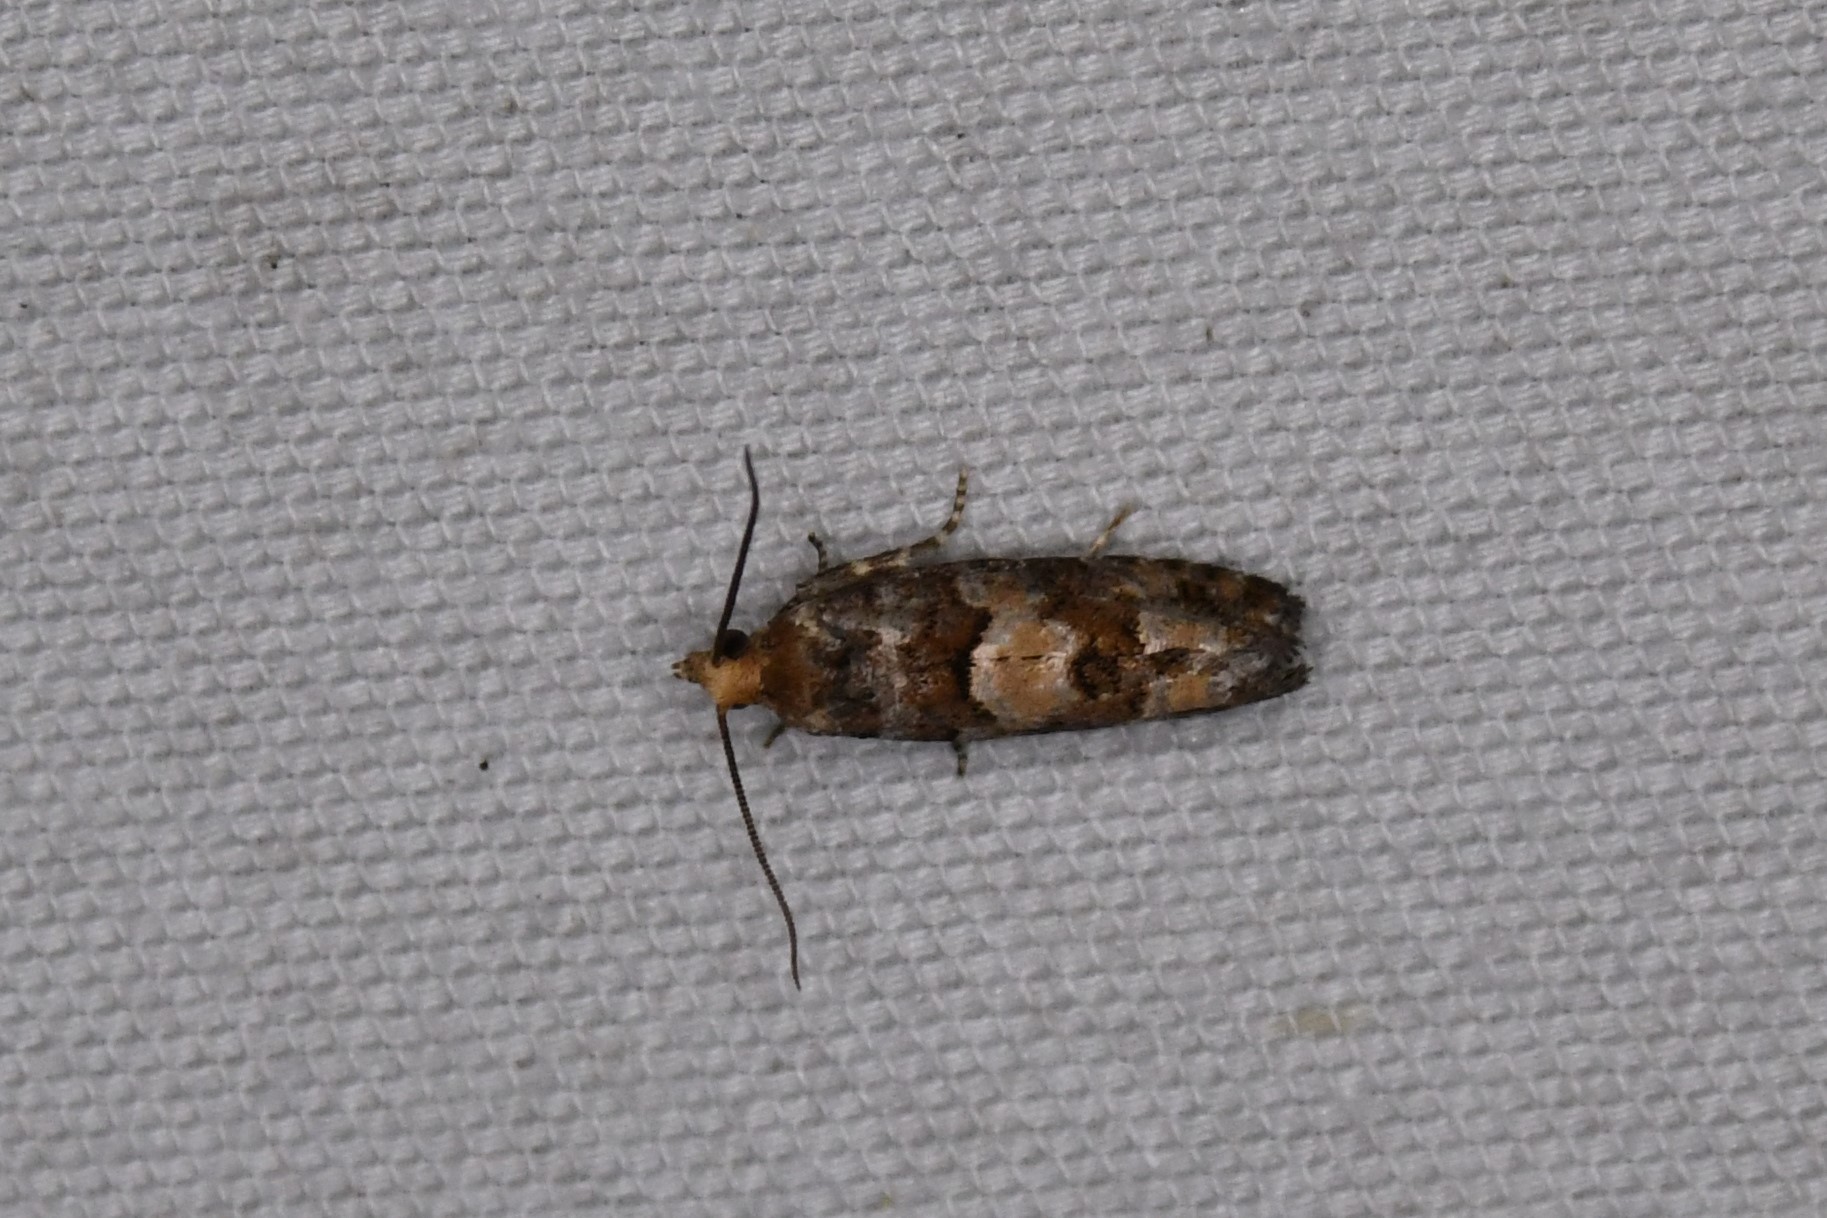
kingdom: Animalia
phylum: Arthropoda
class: Insecta
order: Lepidoptera
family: Tortricidae
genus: Eucopina
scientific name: Eucopina tocullionana
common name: White pinecone borer moth
